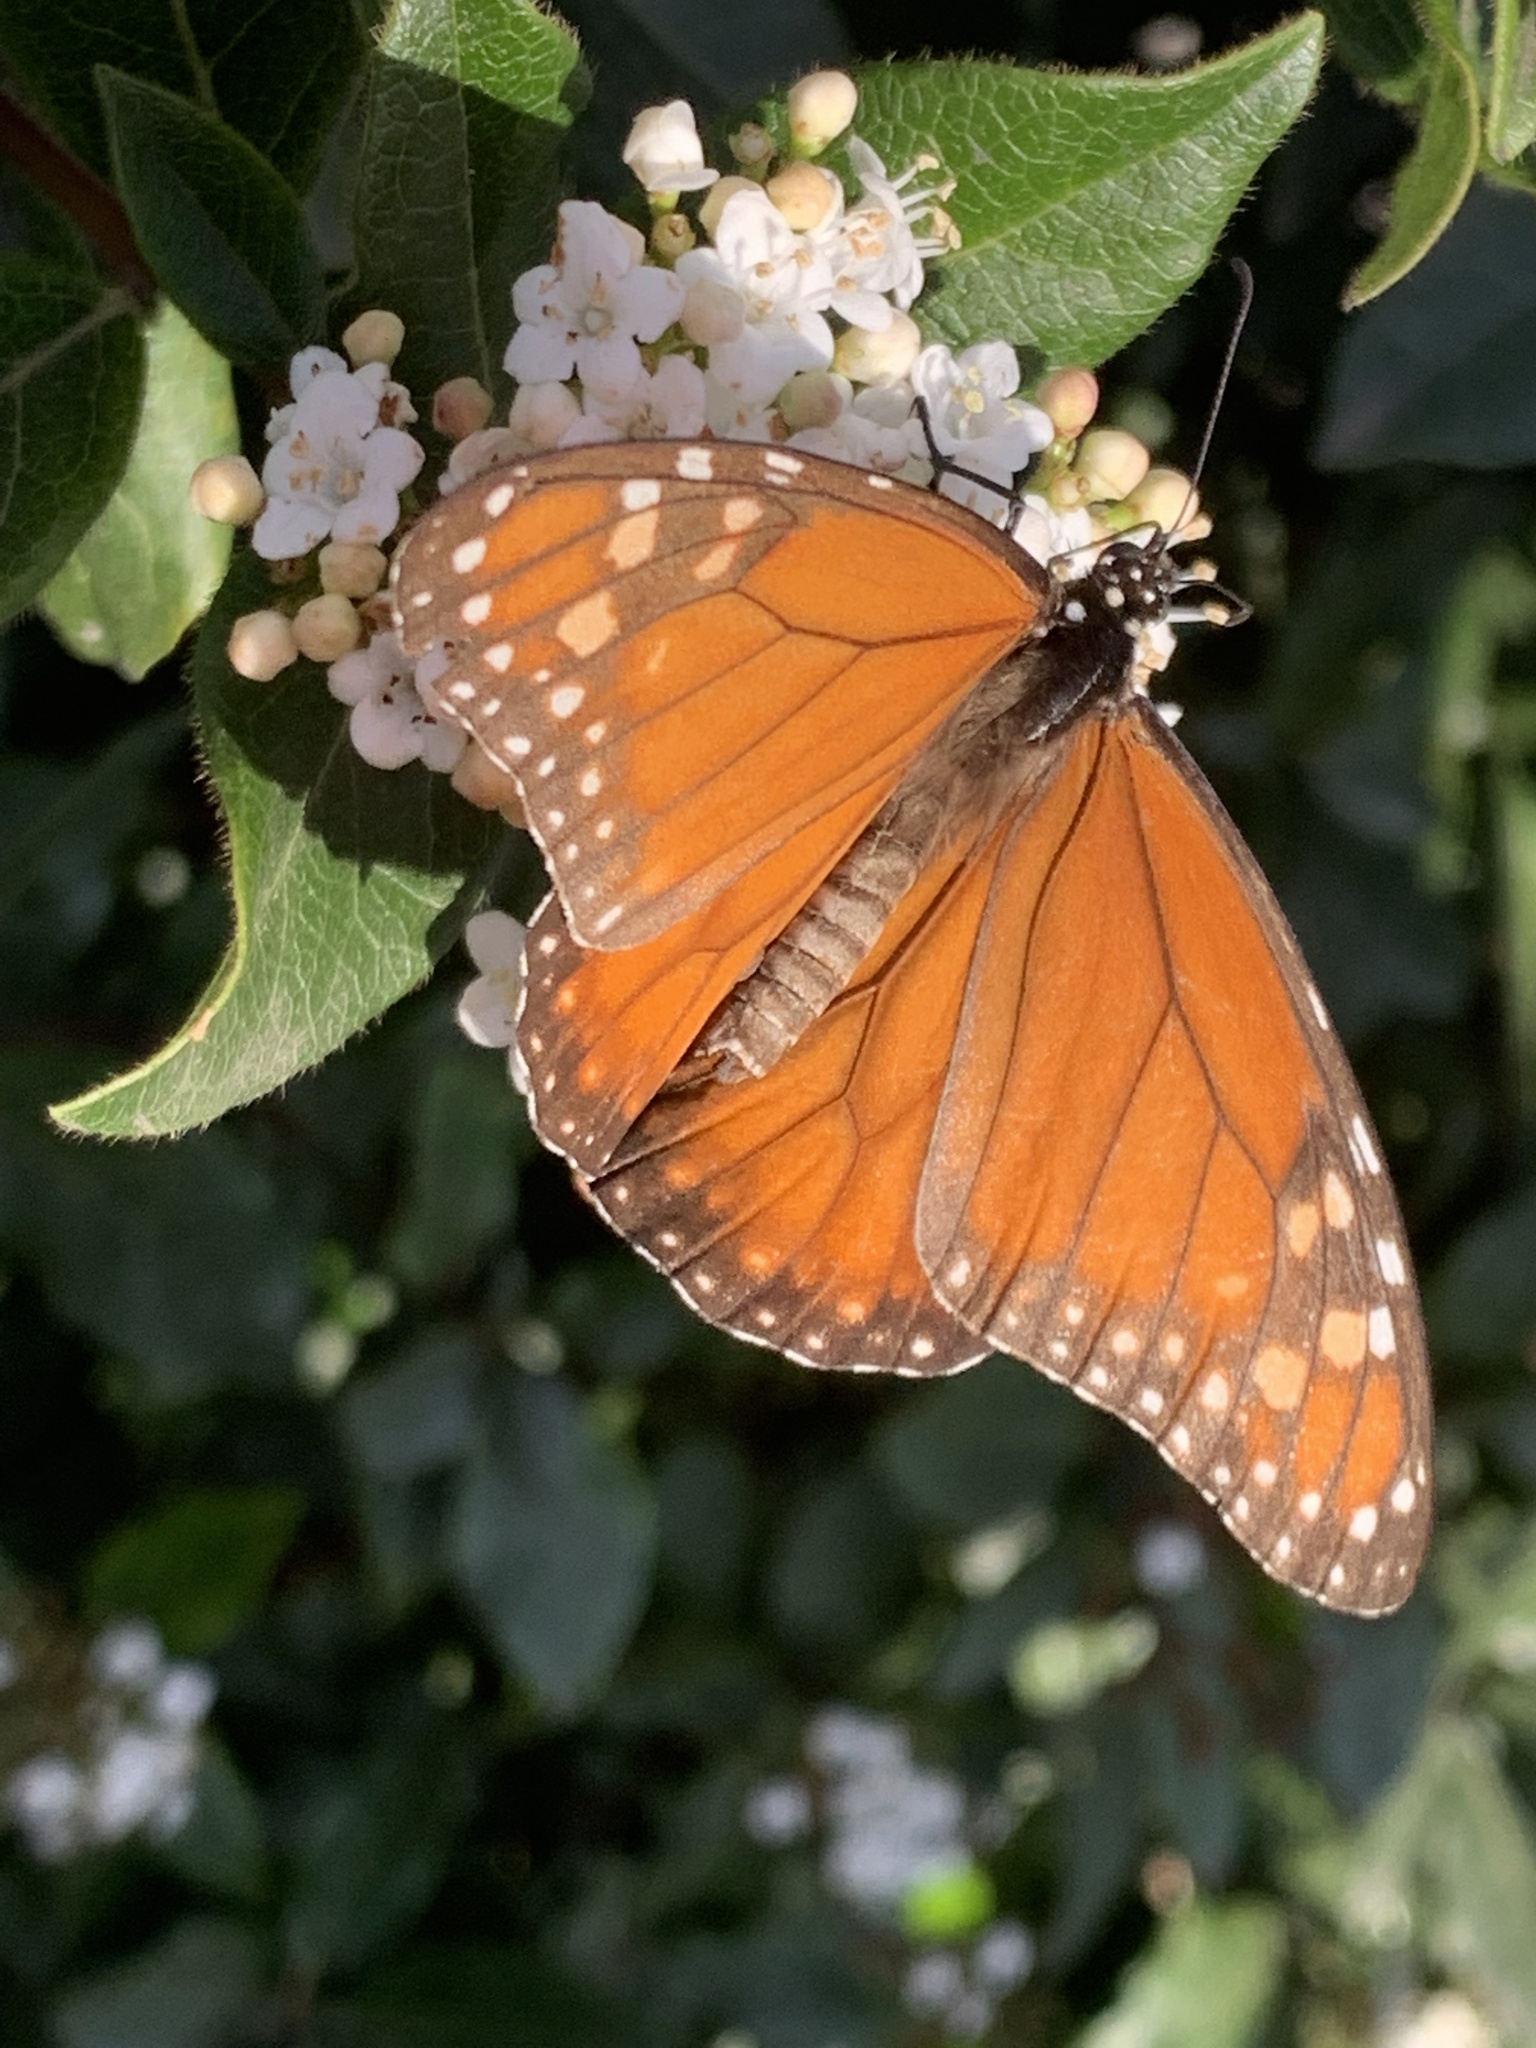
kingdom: Animalia
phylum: Arthropoda
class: Insecta
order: Lepidoptera
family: Nymphalidae
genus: Danaus
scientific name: Danaus erippus
